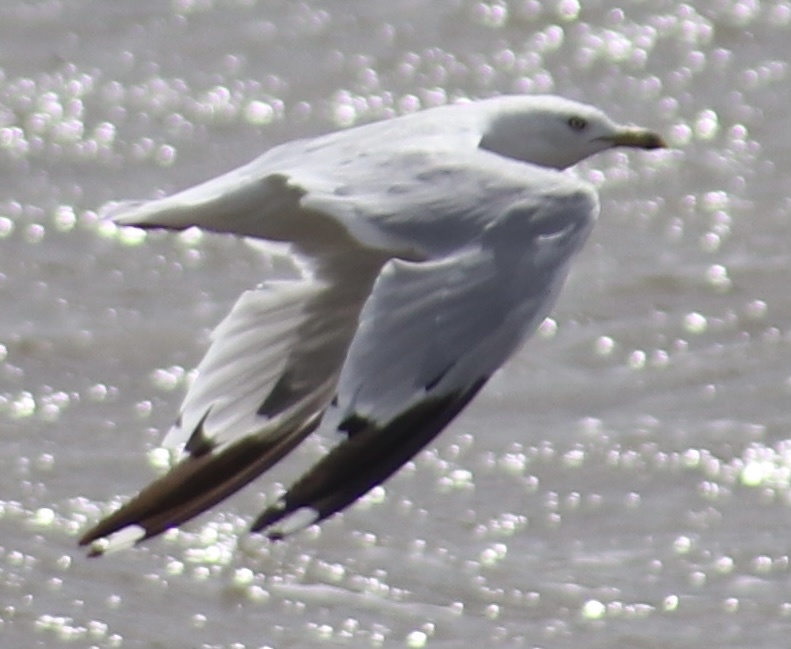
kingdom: Animalia
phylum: Chordata
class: Aves
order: Charadriiformes
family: Laridae
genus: Larus
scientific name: Larus delawarensis
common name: Ring-billed gull
